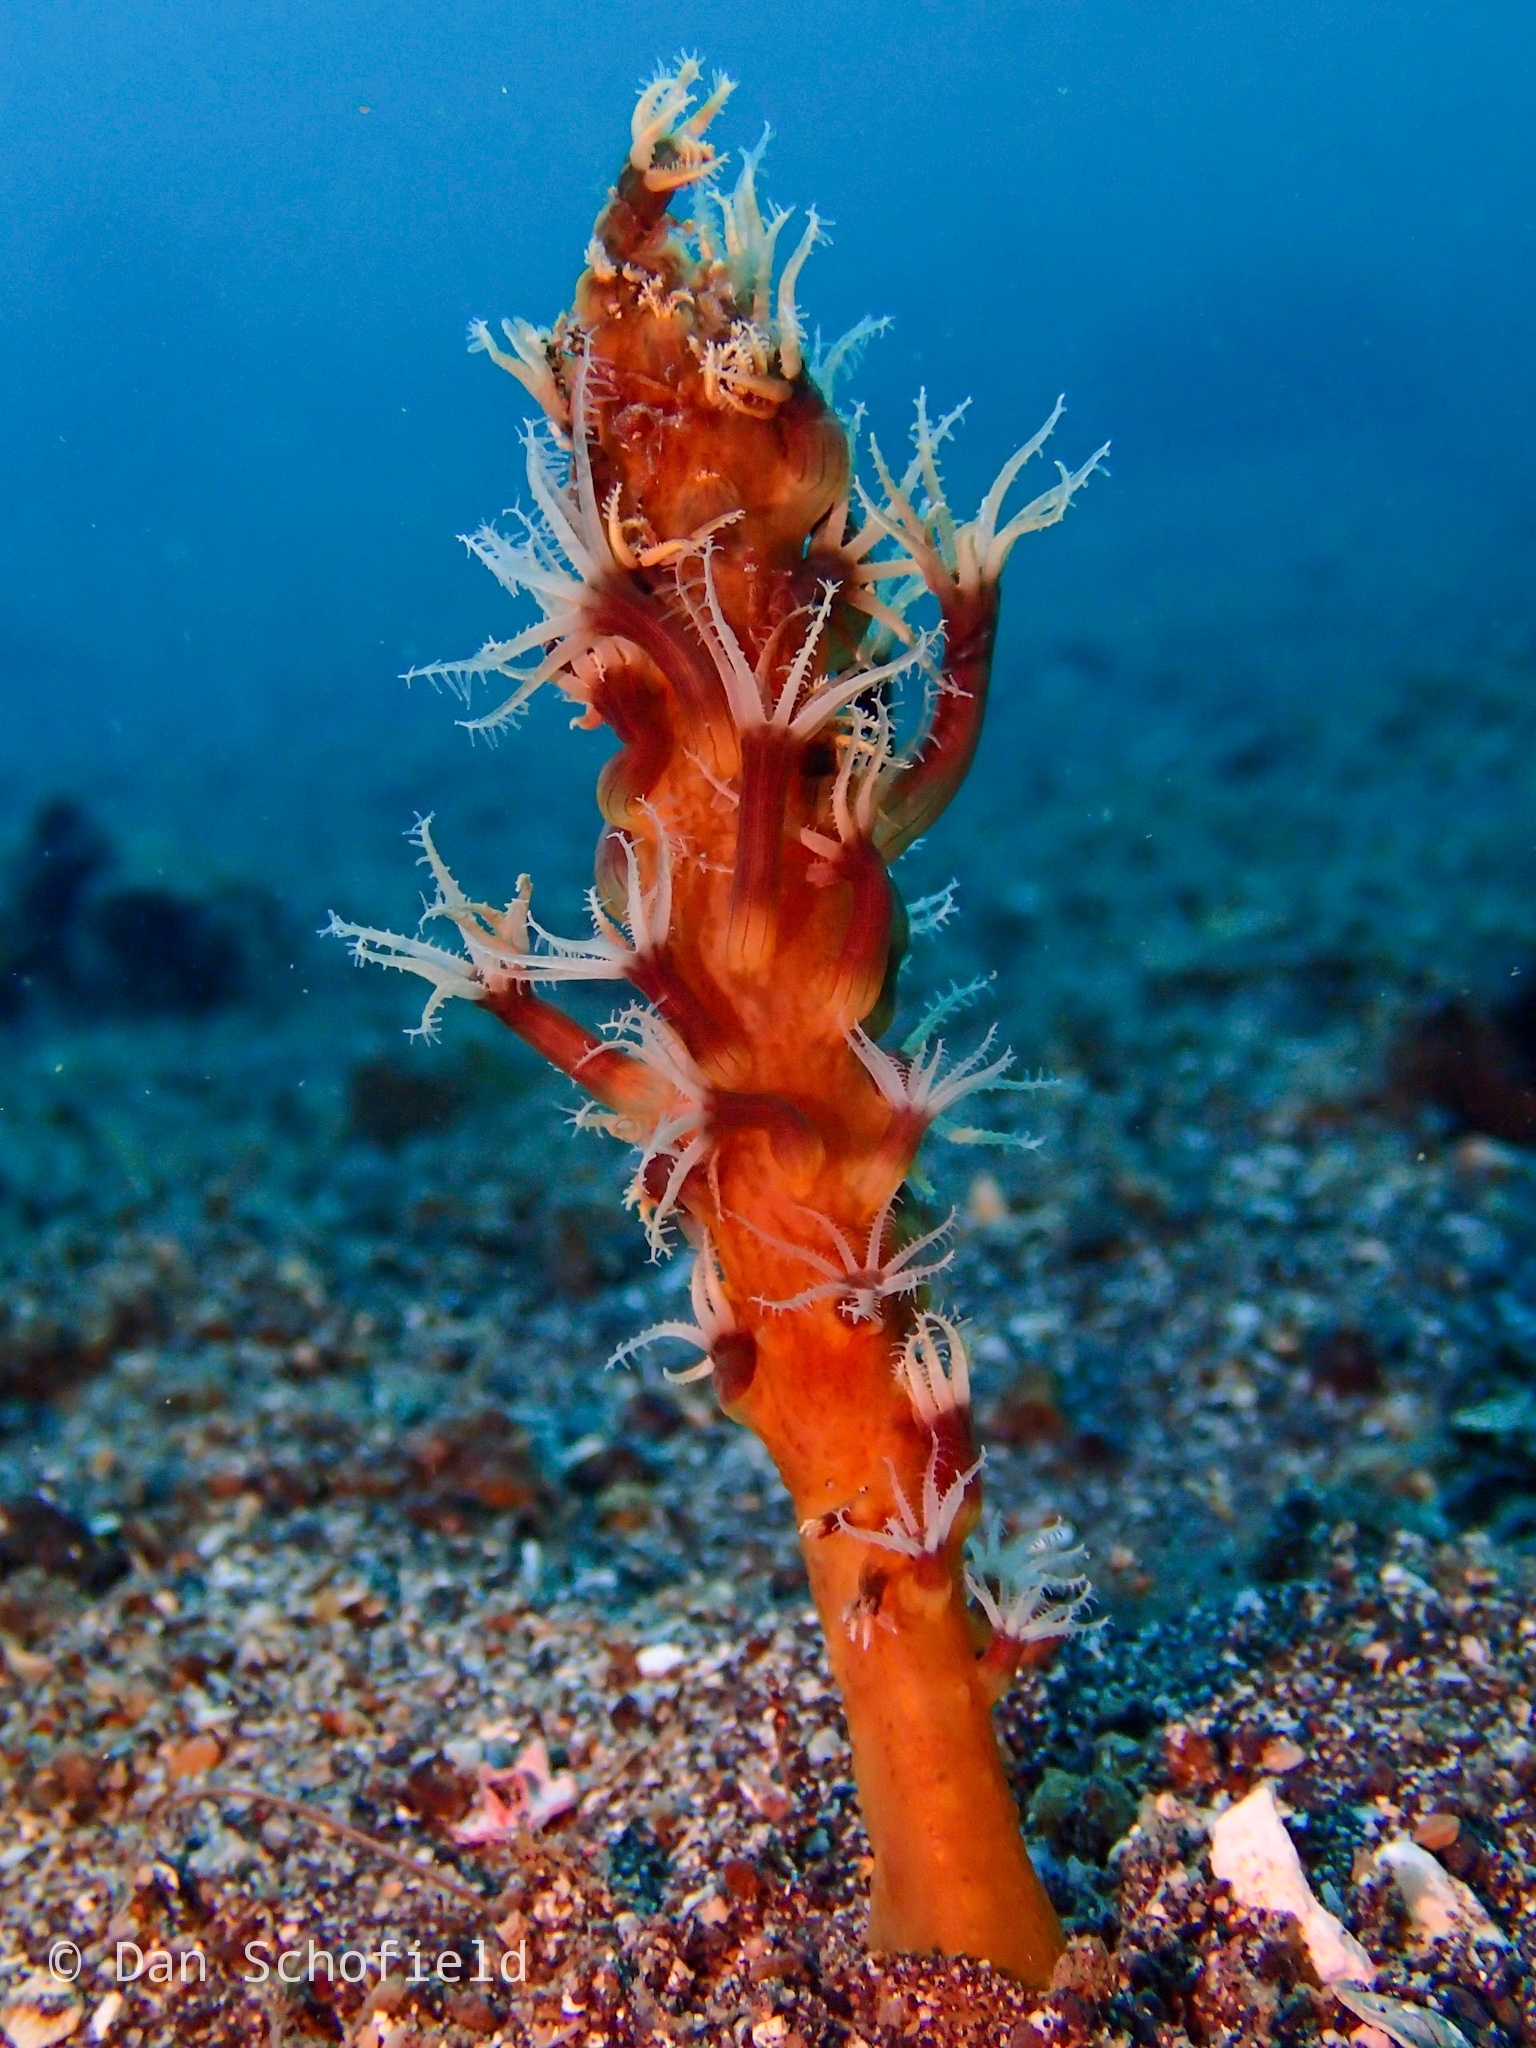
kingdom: Animalia
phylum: Cnidaria
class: Anthozoa
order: Scleralcyonacea
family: Kophobelemnidae
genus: Sclerobelemnon
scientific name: Sclerobelemnon burgeri
